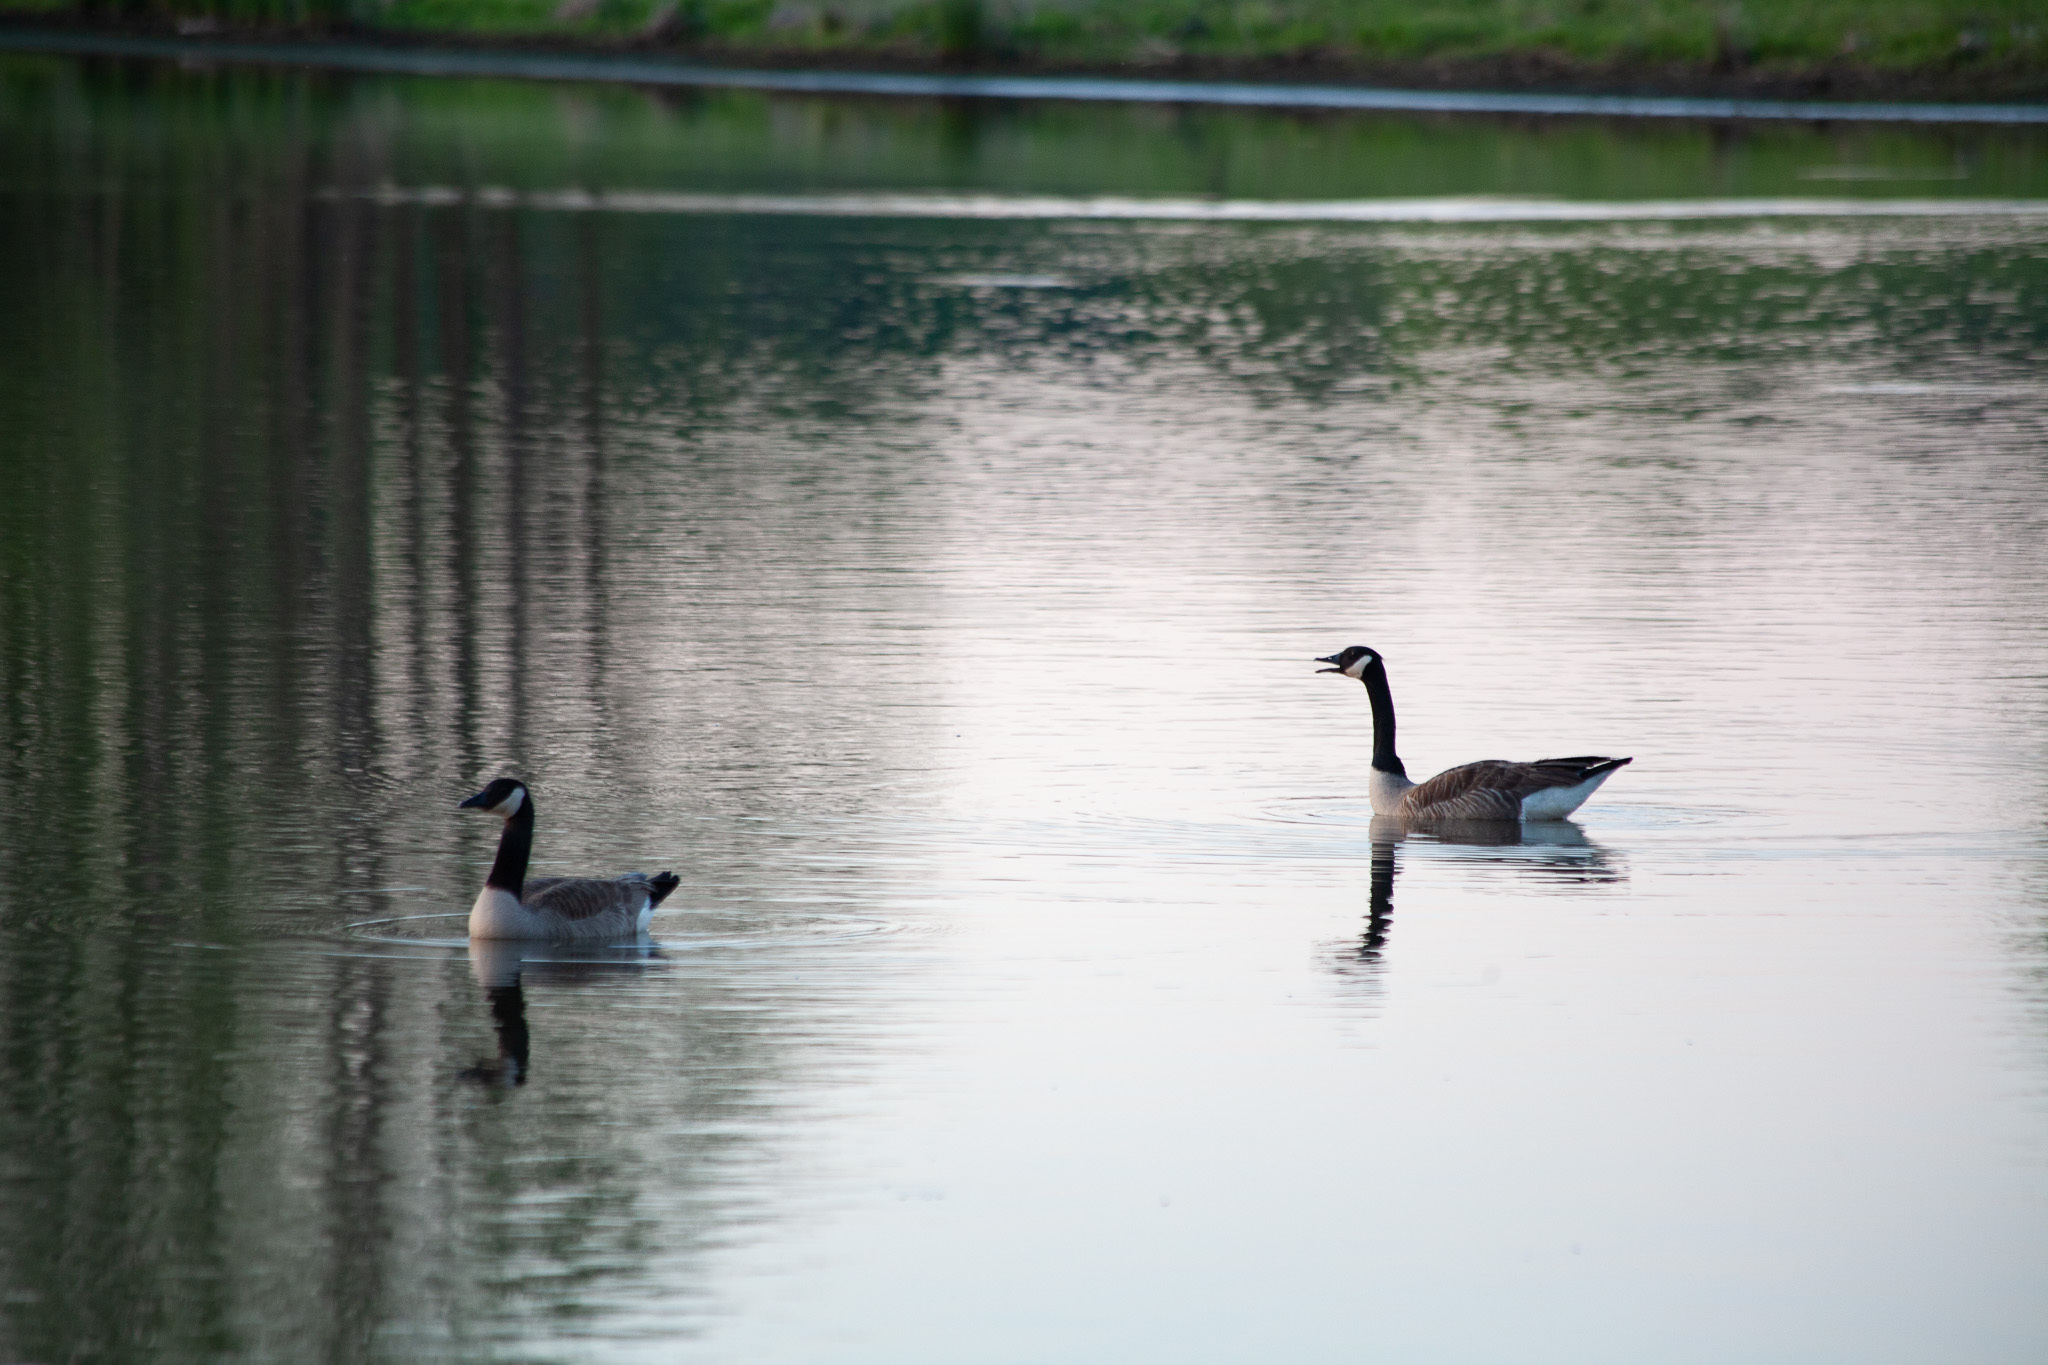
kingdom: Animalia
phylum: Chordata
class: Aves
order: Anseriformes
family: Anatidae
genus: Branta
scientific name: Branta canadensis
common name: Canada goose
